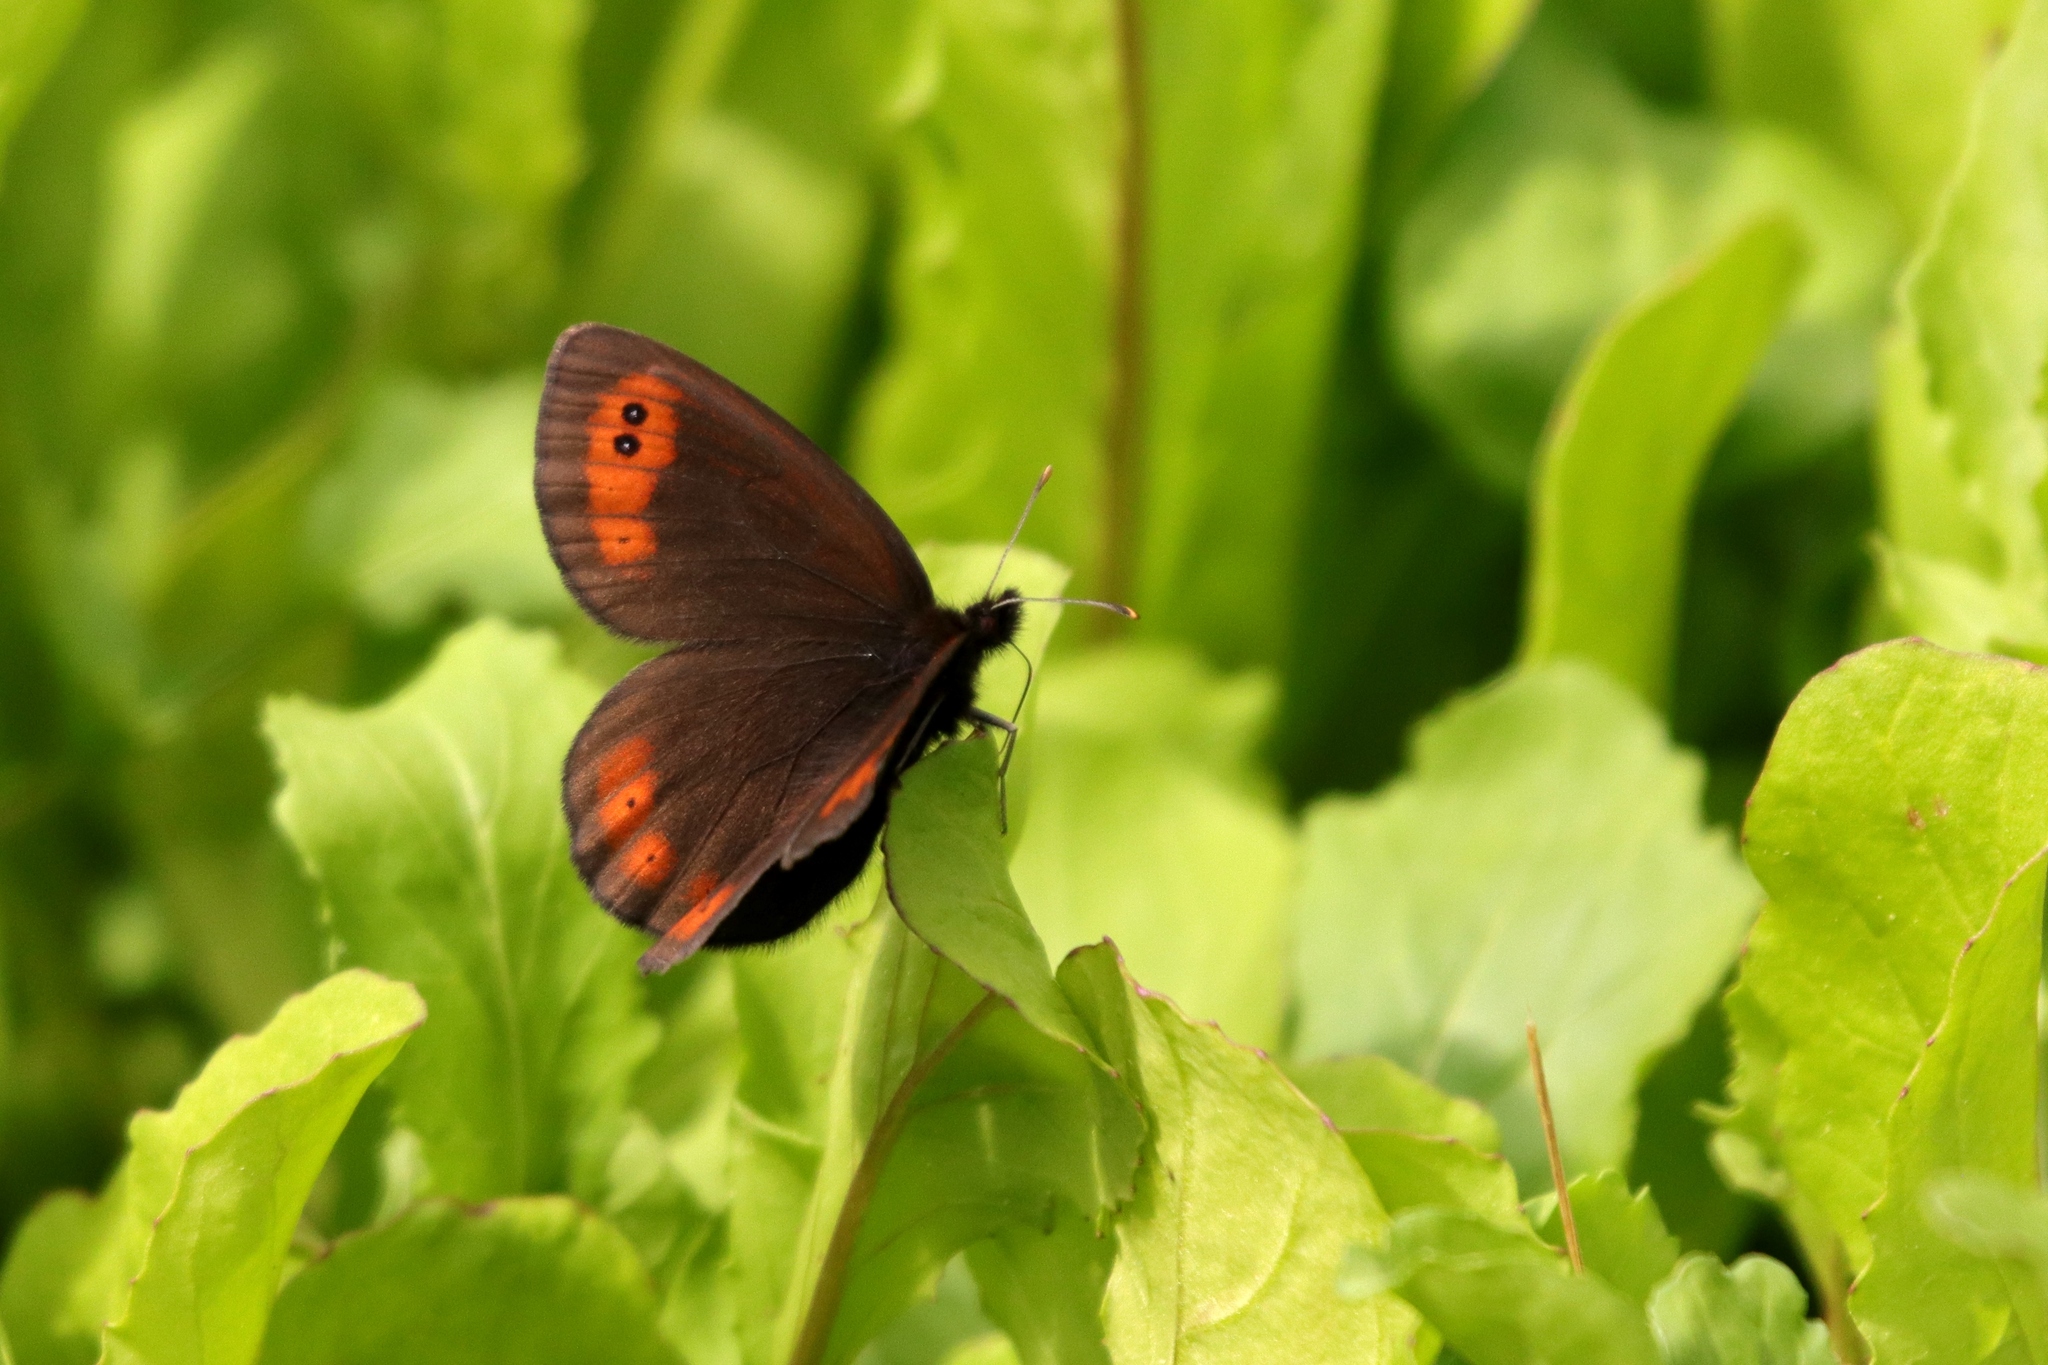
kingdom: Animalia
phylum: Arthropoda
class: Insecta
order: Lepidoptera
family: Nymphalidae
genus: Erebia
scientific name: Erebia epipsodea
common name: Common alpine
